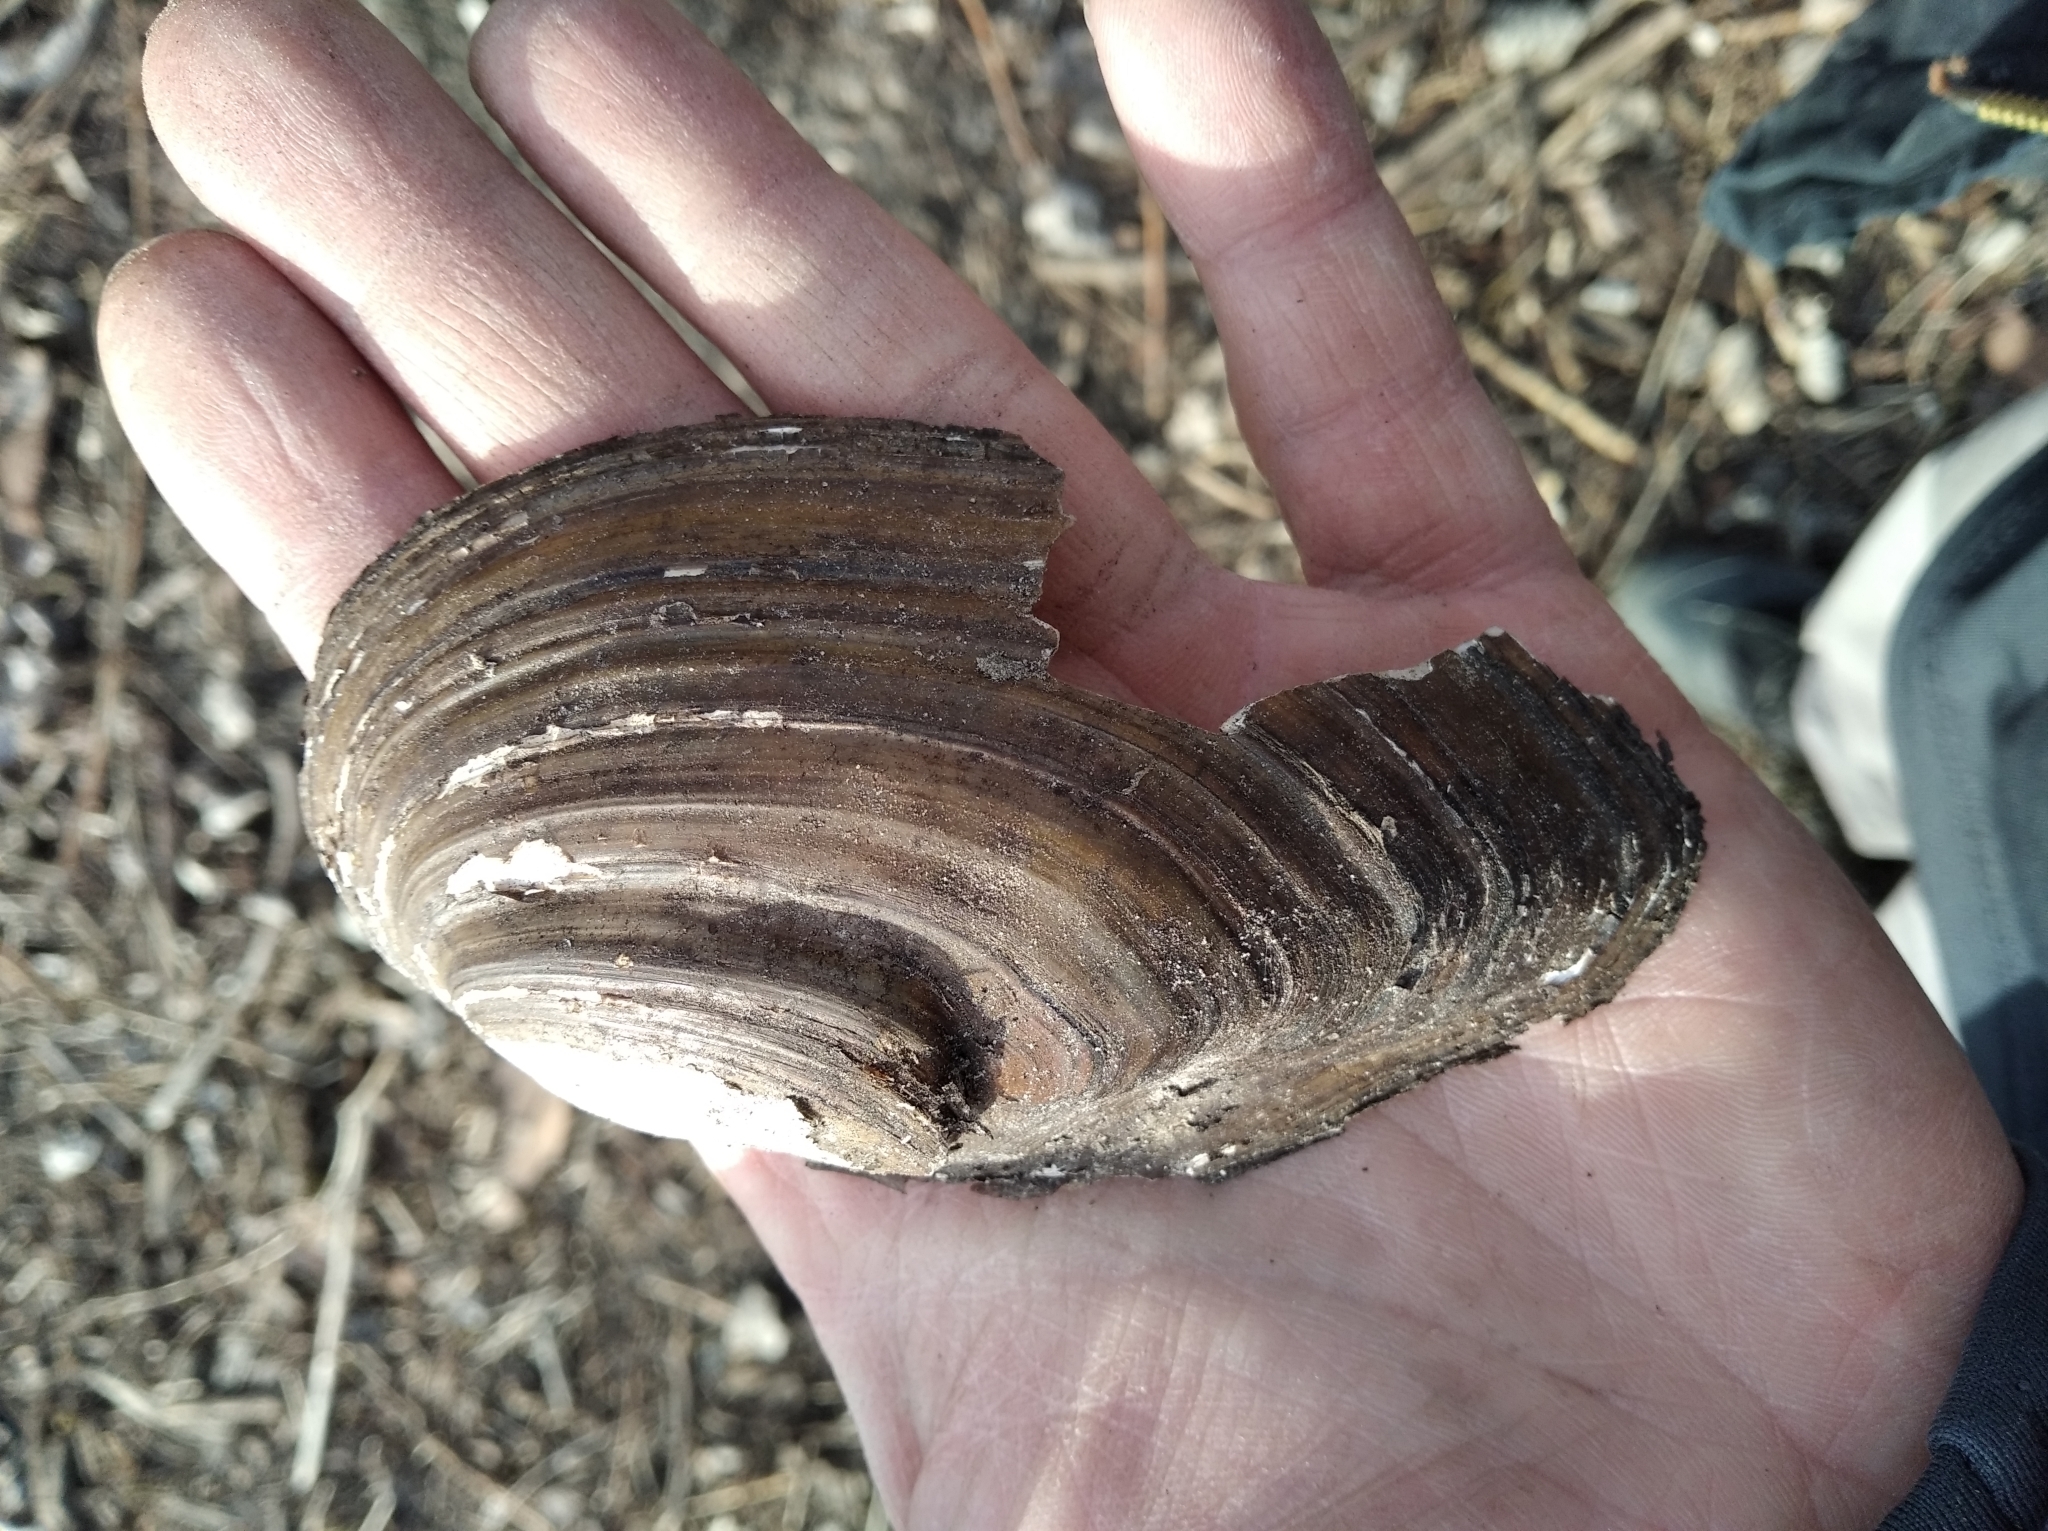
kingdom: Animalia
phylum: Mollusca
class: Bivalvia
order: Unionida
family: Unionidae
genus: Anodonta
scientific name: Anodonta anatina
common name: Duck mussel
